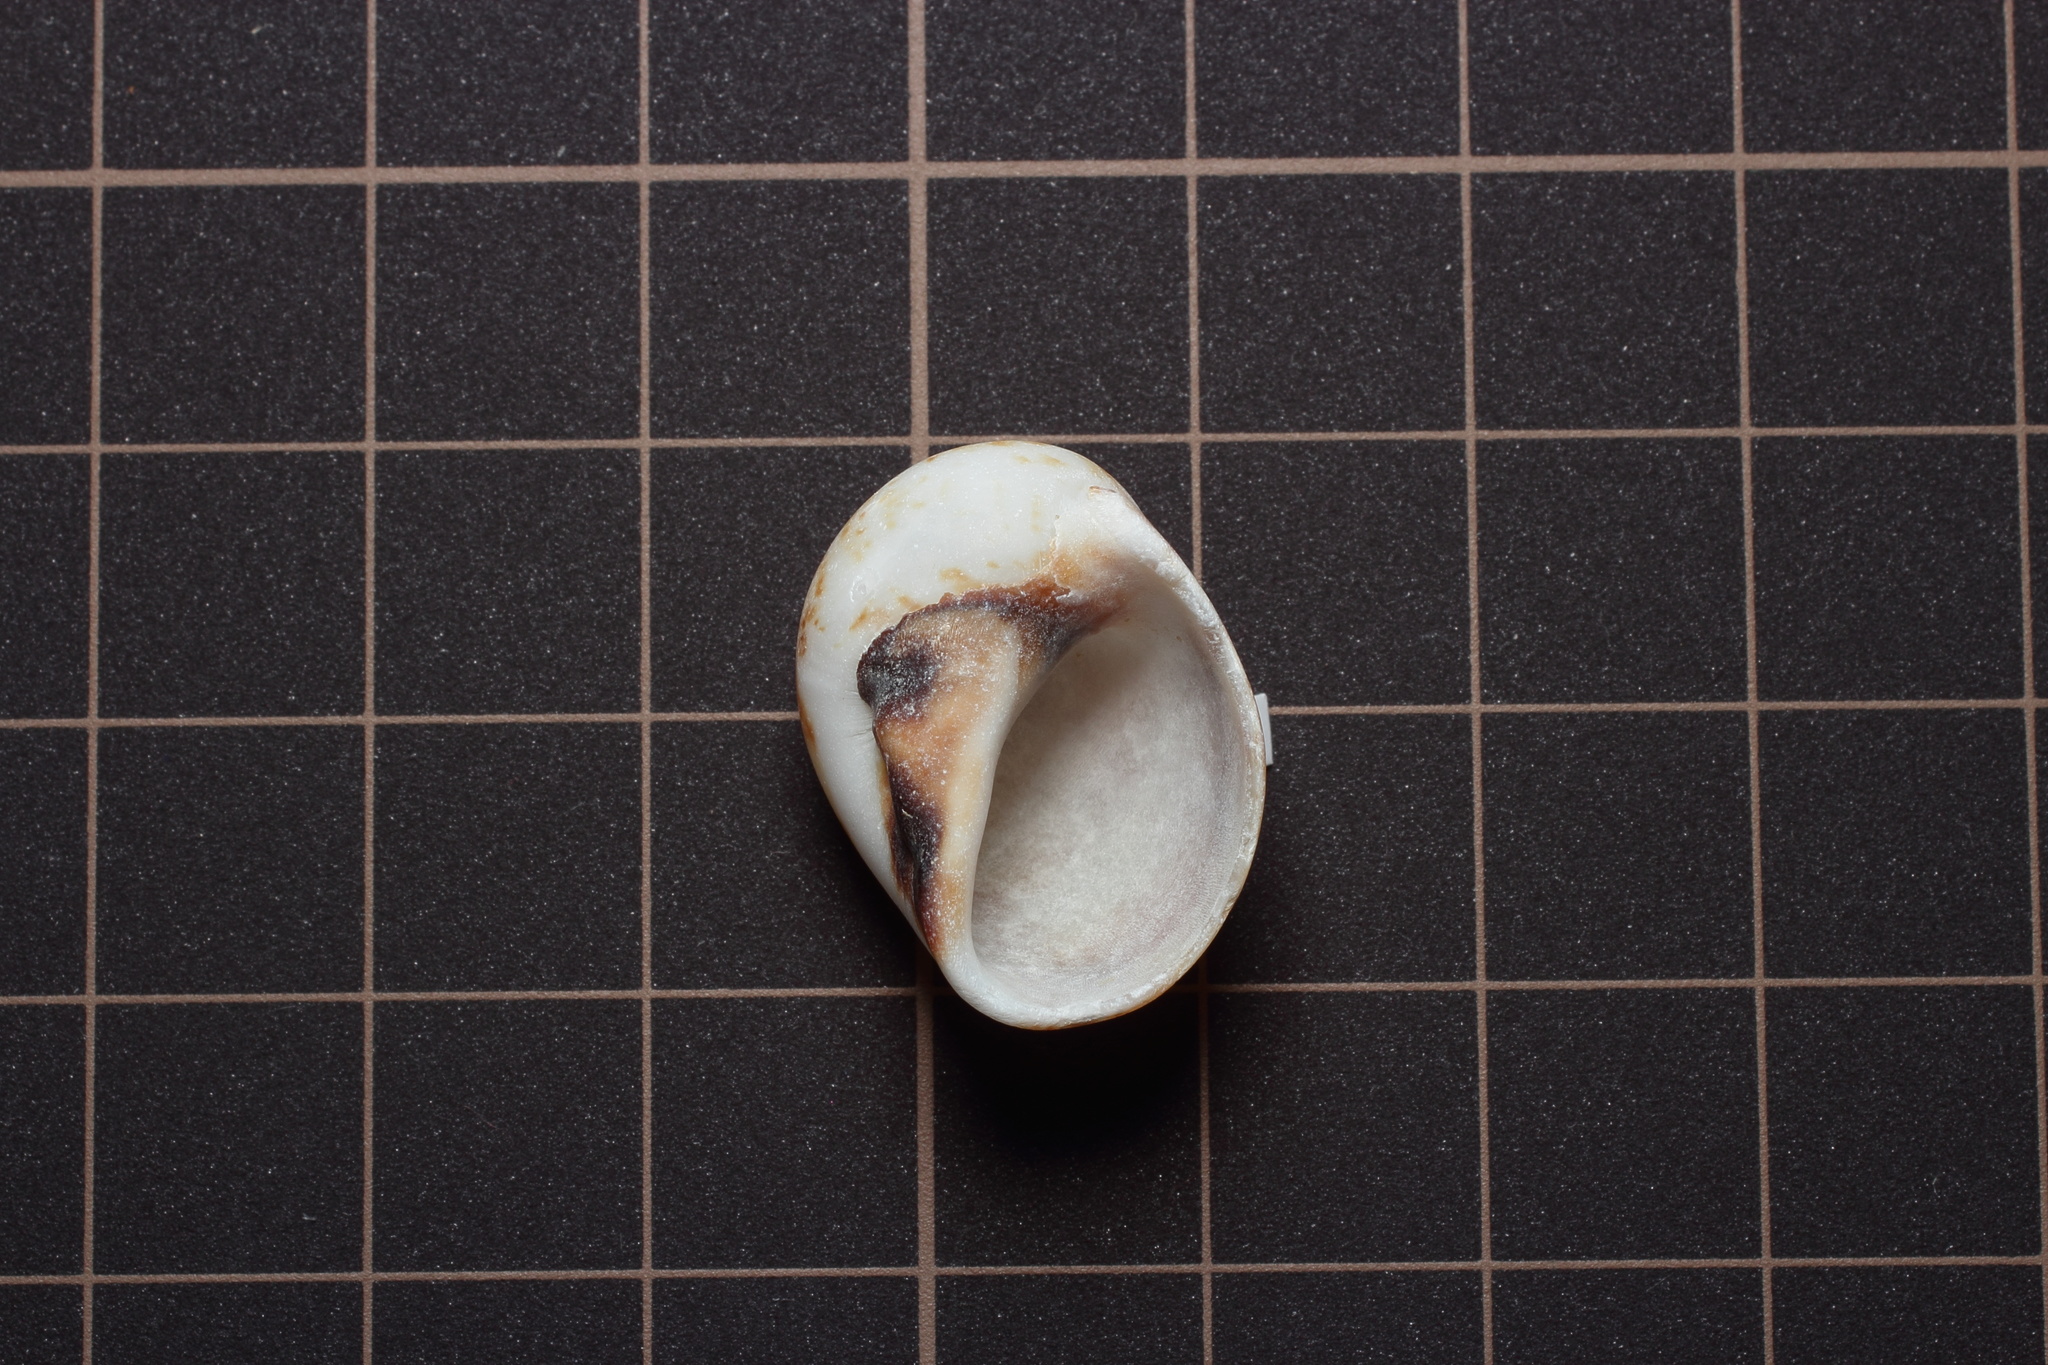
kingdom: Animalia
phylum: Mollusca
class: Gastropoda
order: Littorinimorpha
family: Naticidae
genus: Mammilla
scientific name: Mammilla simiae
